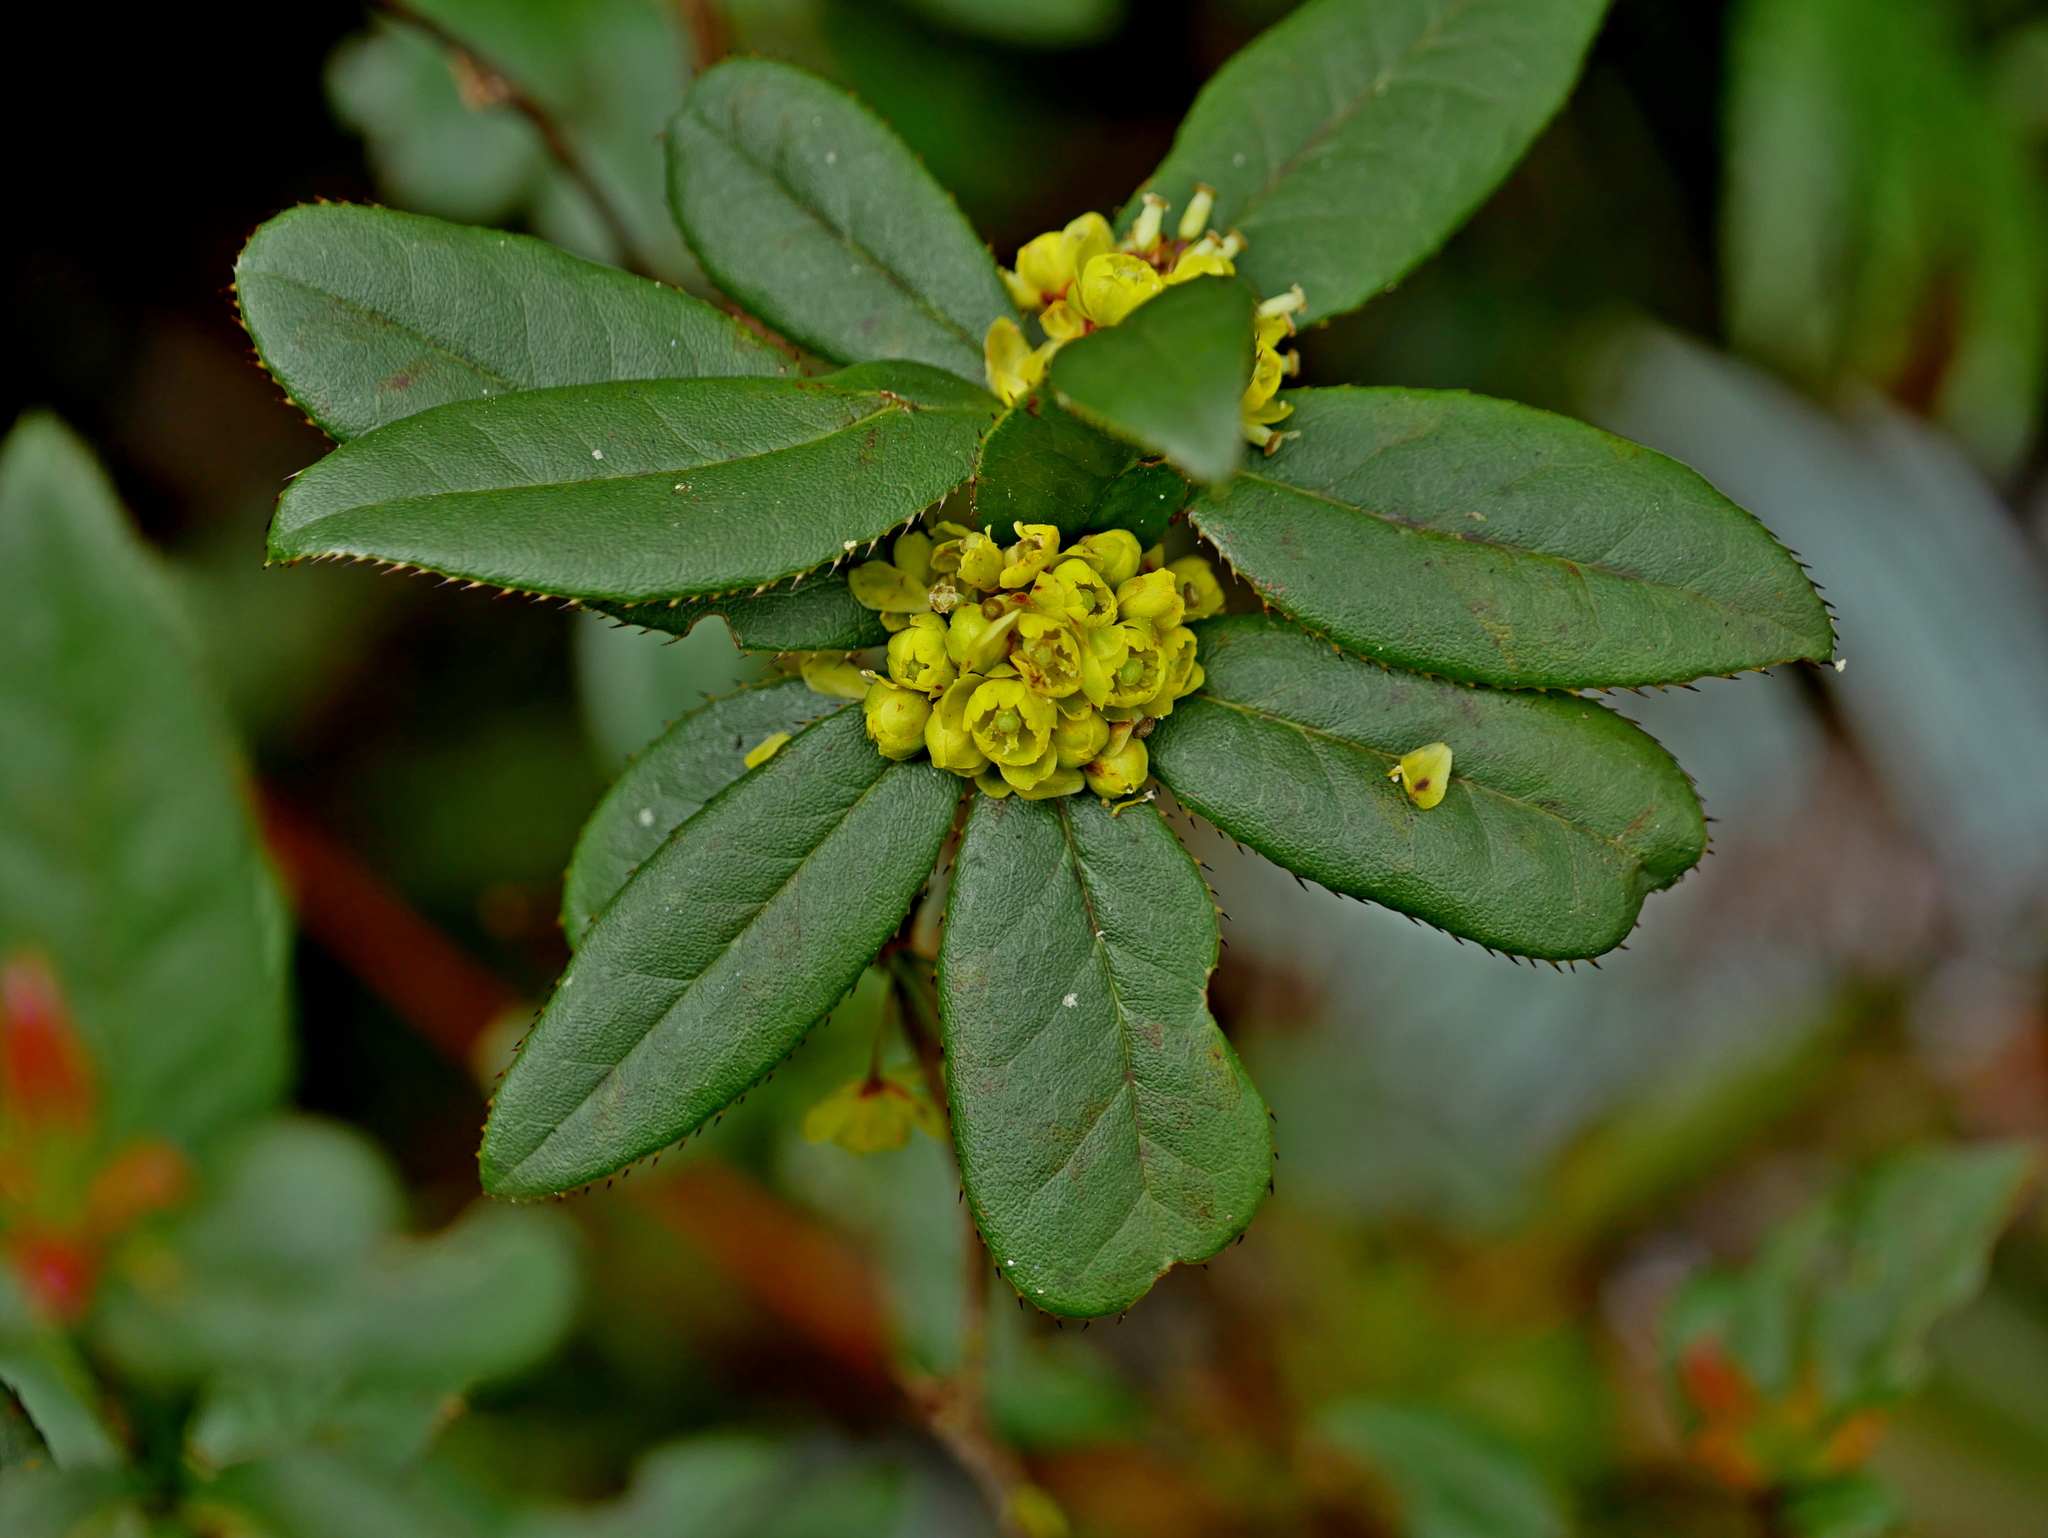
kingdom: Plantae
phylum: Tracheophyta
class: Magnoliopsida
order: Ranunculales
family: Berberidaceae
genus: Berberis
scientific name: Berberis schaaliae
